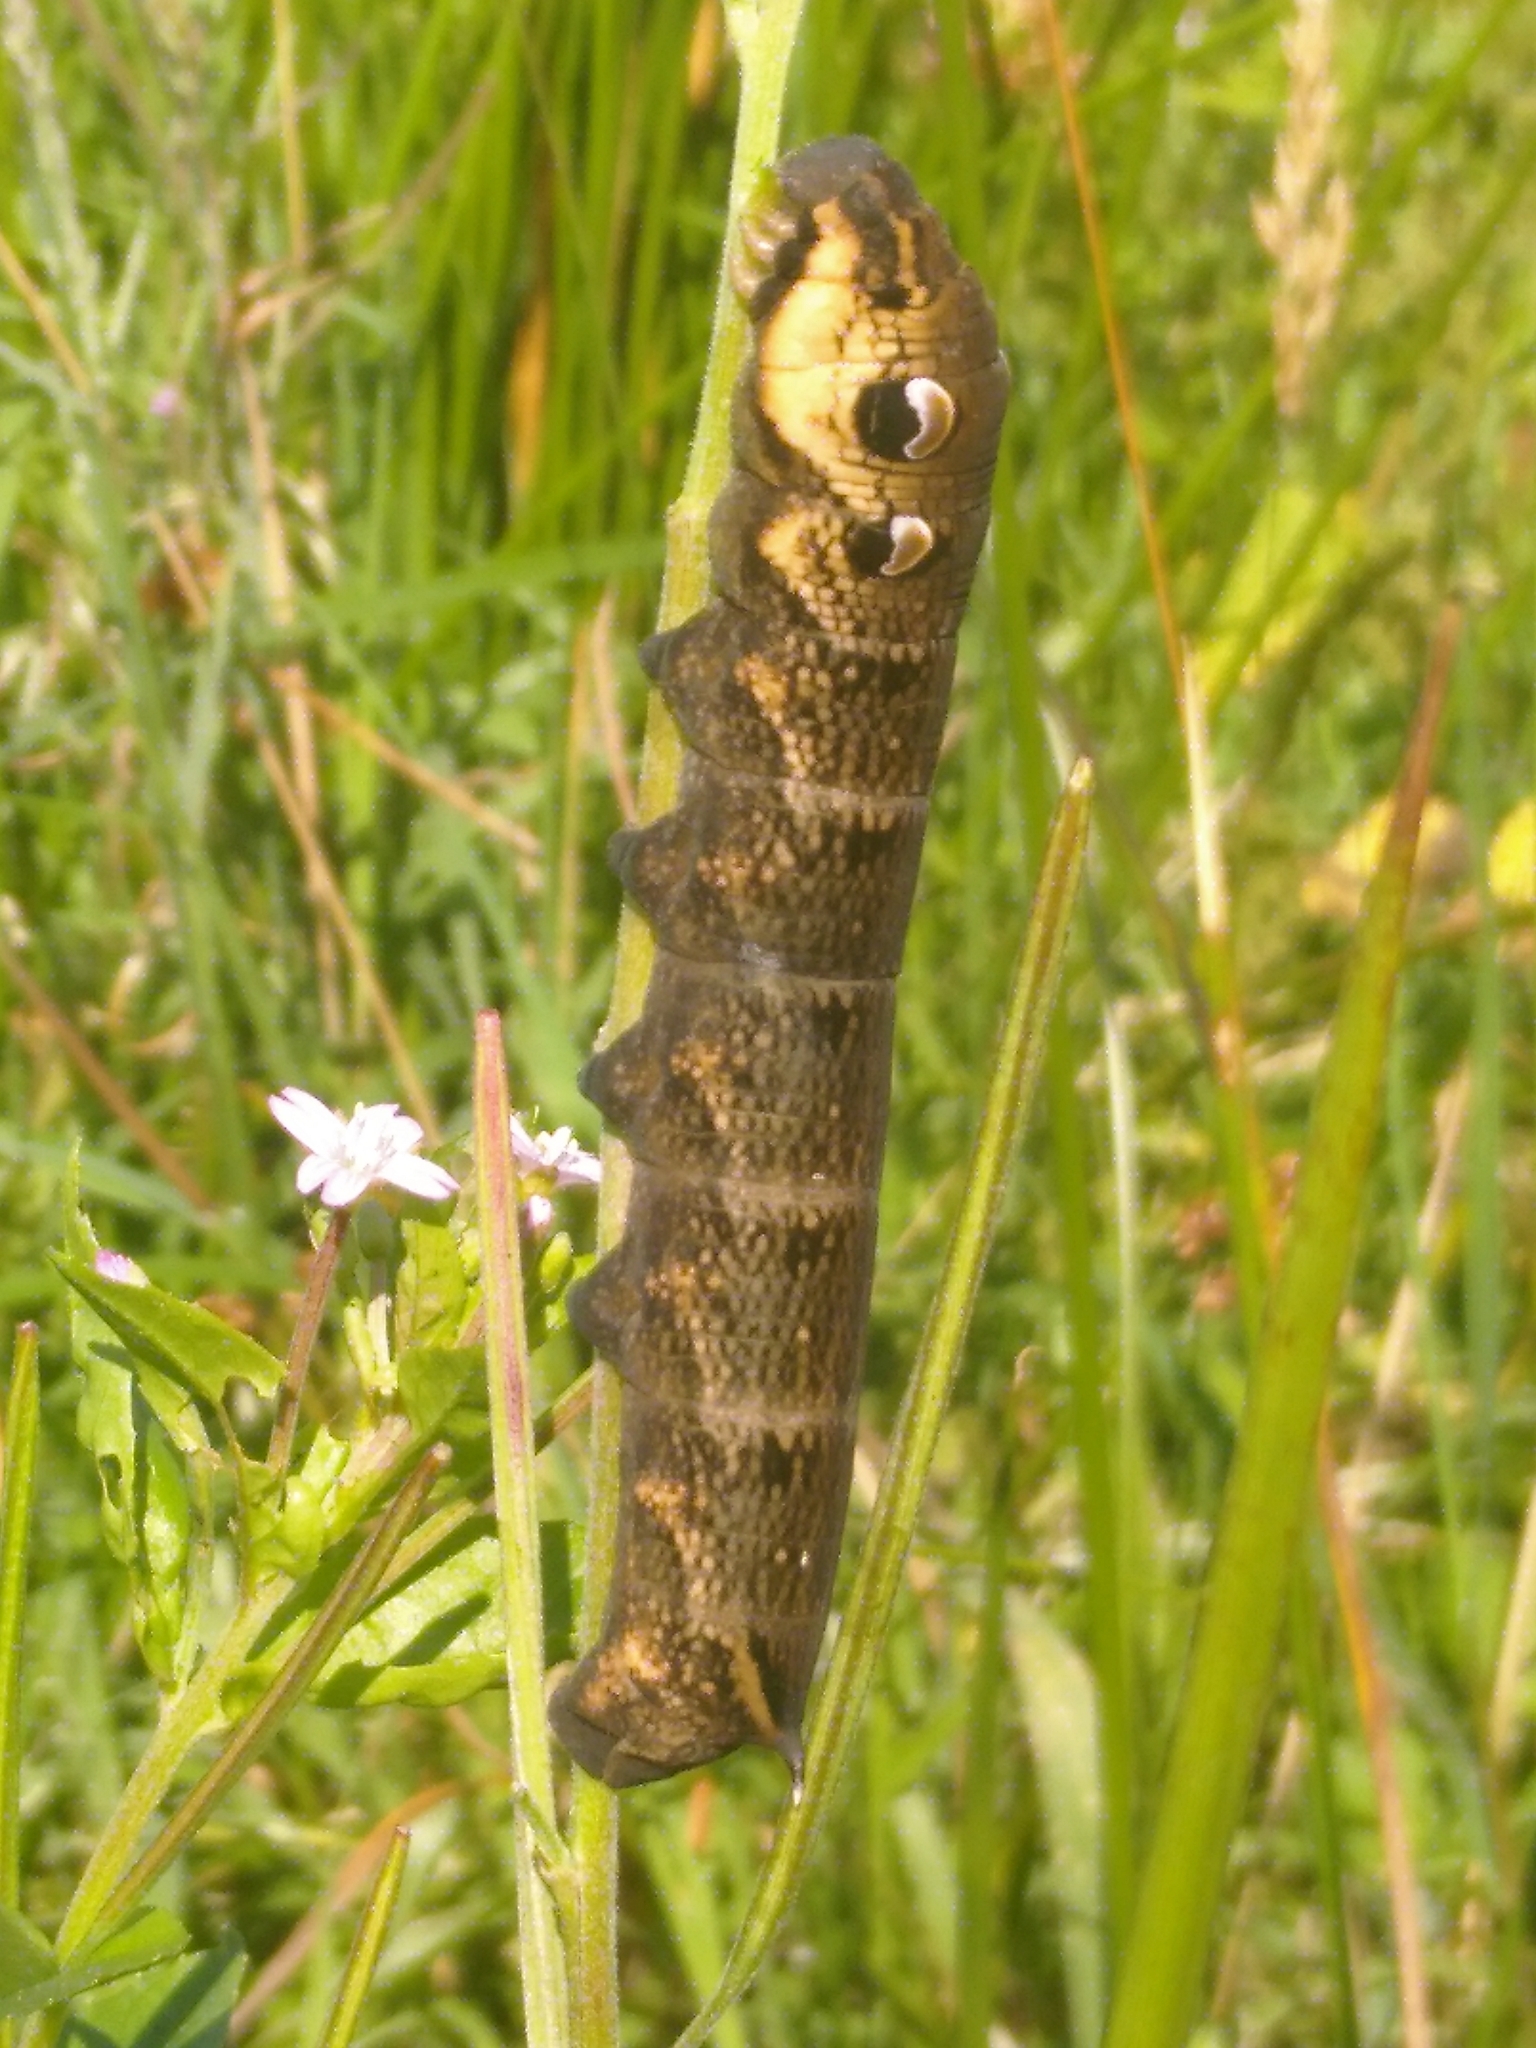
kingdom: Animalia
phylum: Arthropoda
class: Insecta
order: Lepidoptera
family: Sphingidae
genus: Deilephila
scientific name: Deilephila elpenor
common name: Elephant hawk-moth
